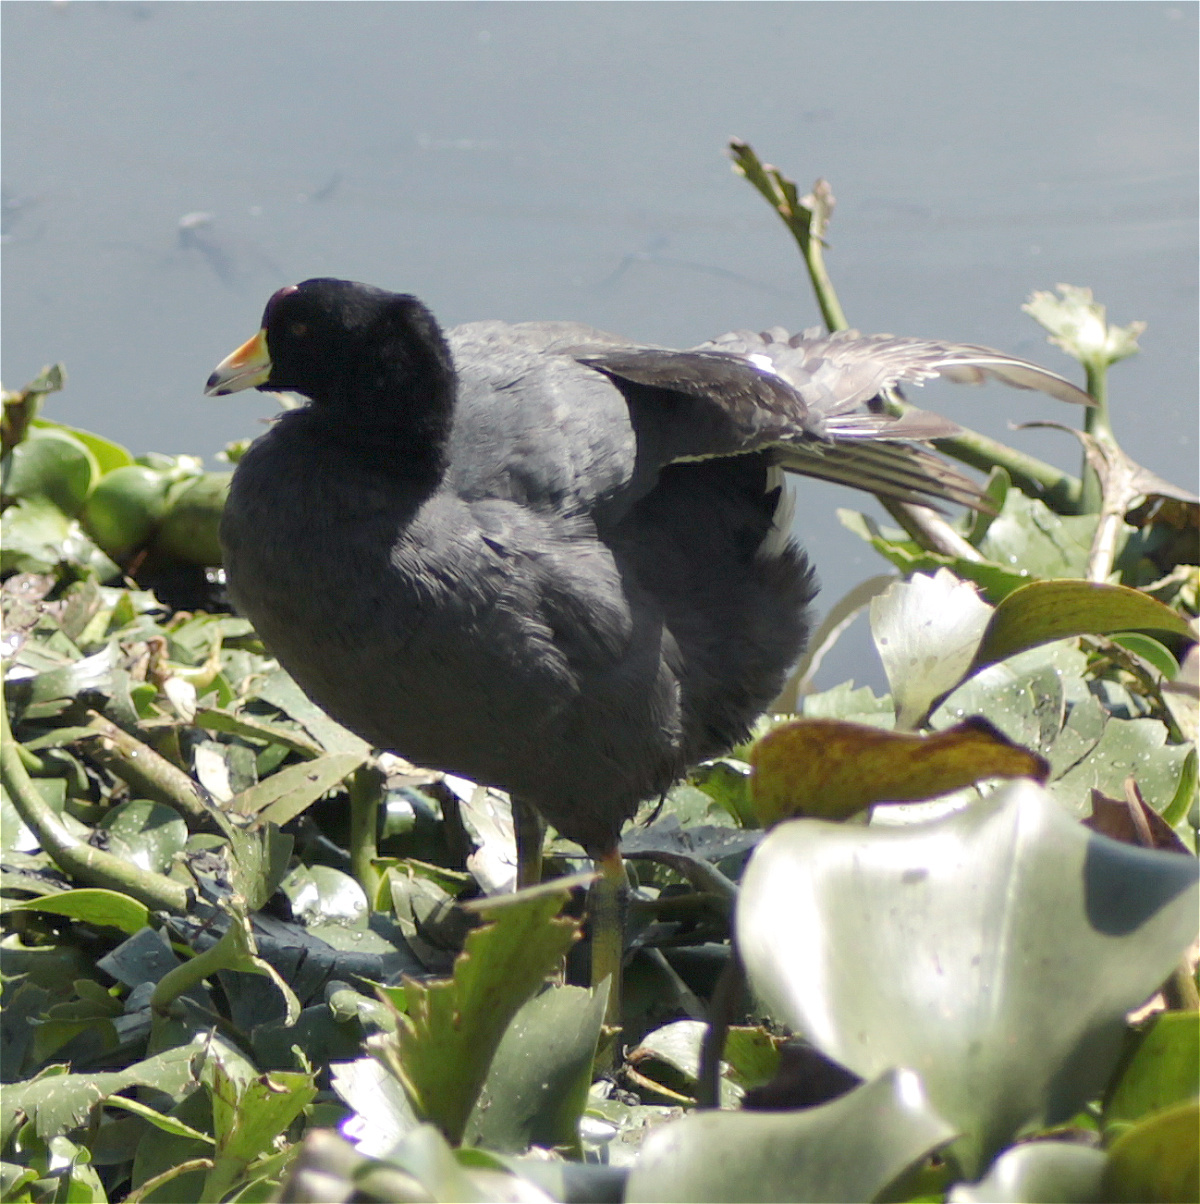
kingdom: Animalia
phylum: Chordata
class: Aves
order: Gruiformes
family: Rallidae
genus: Fulica
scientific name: Fulica americana
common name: American coot
